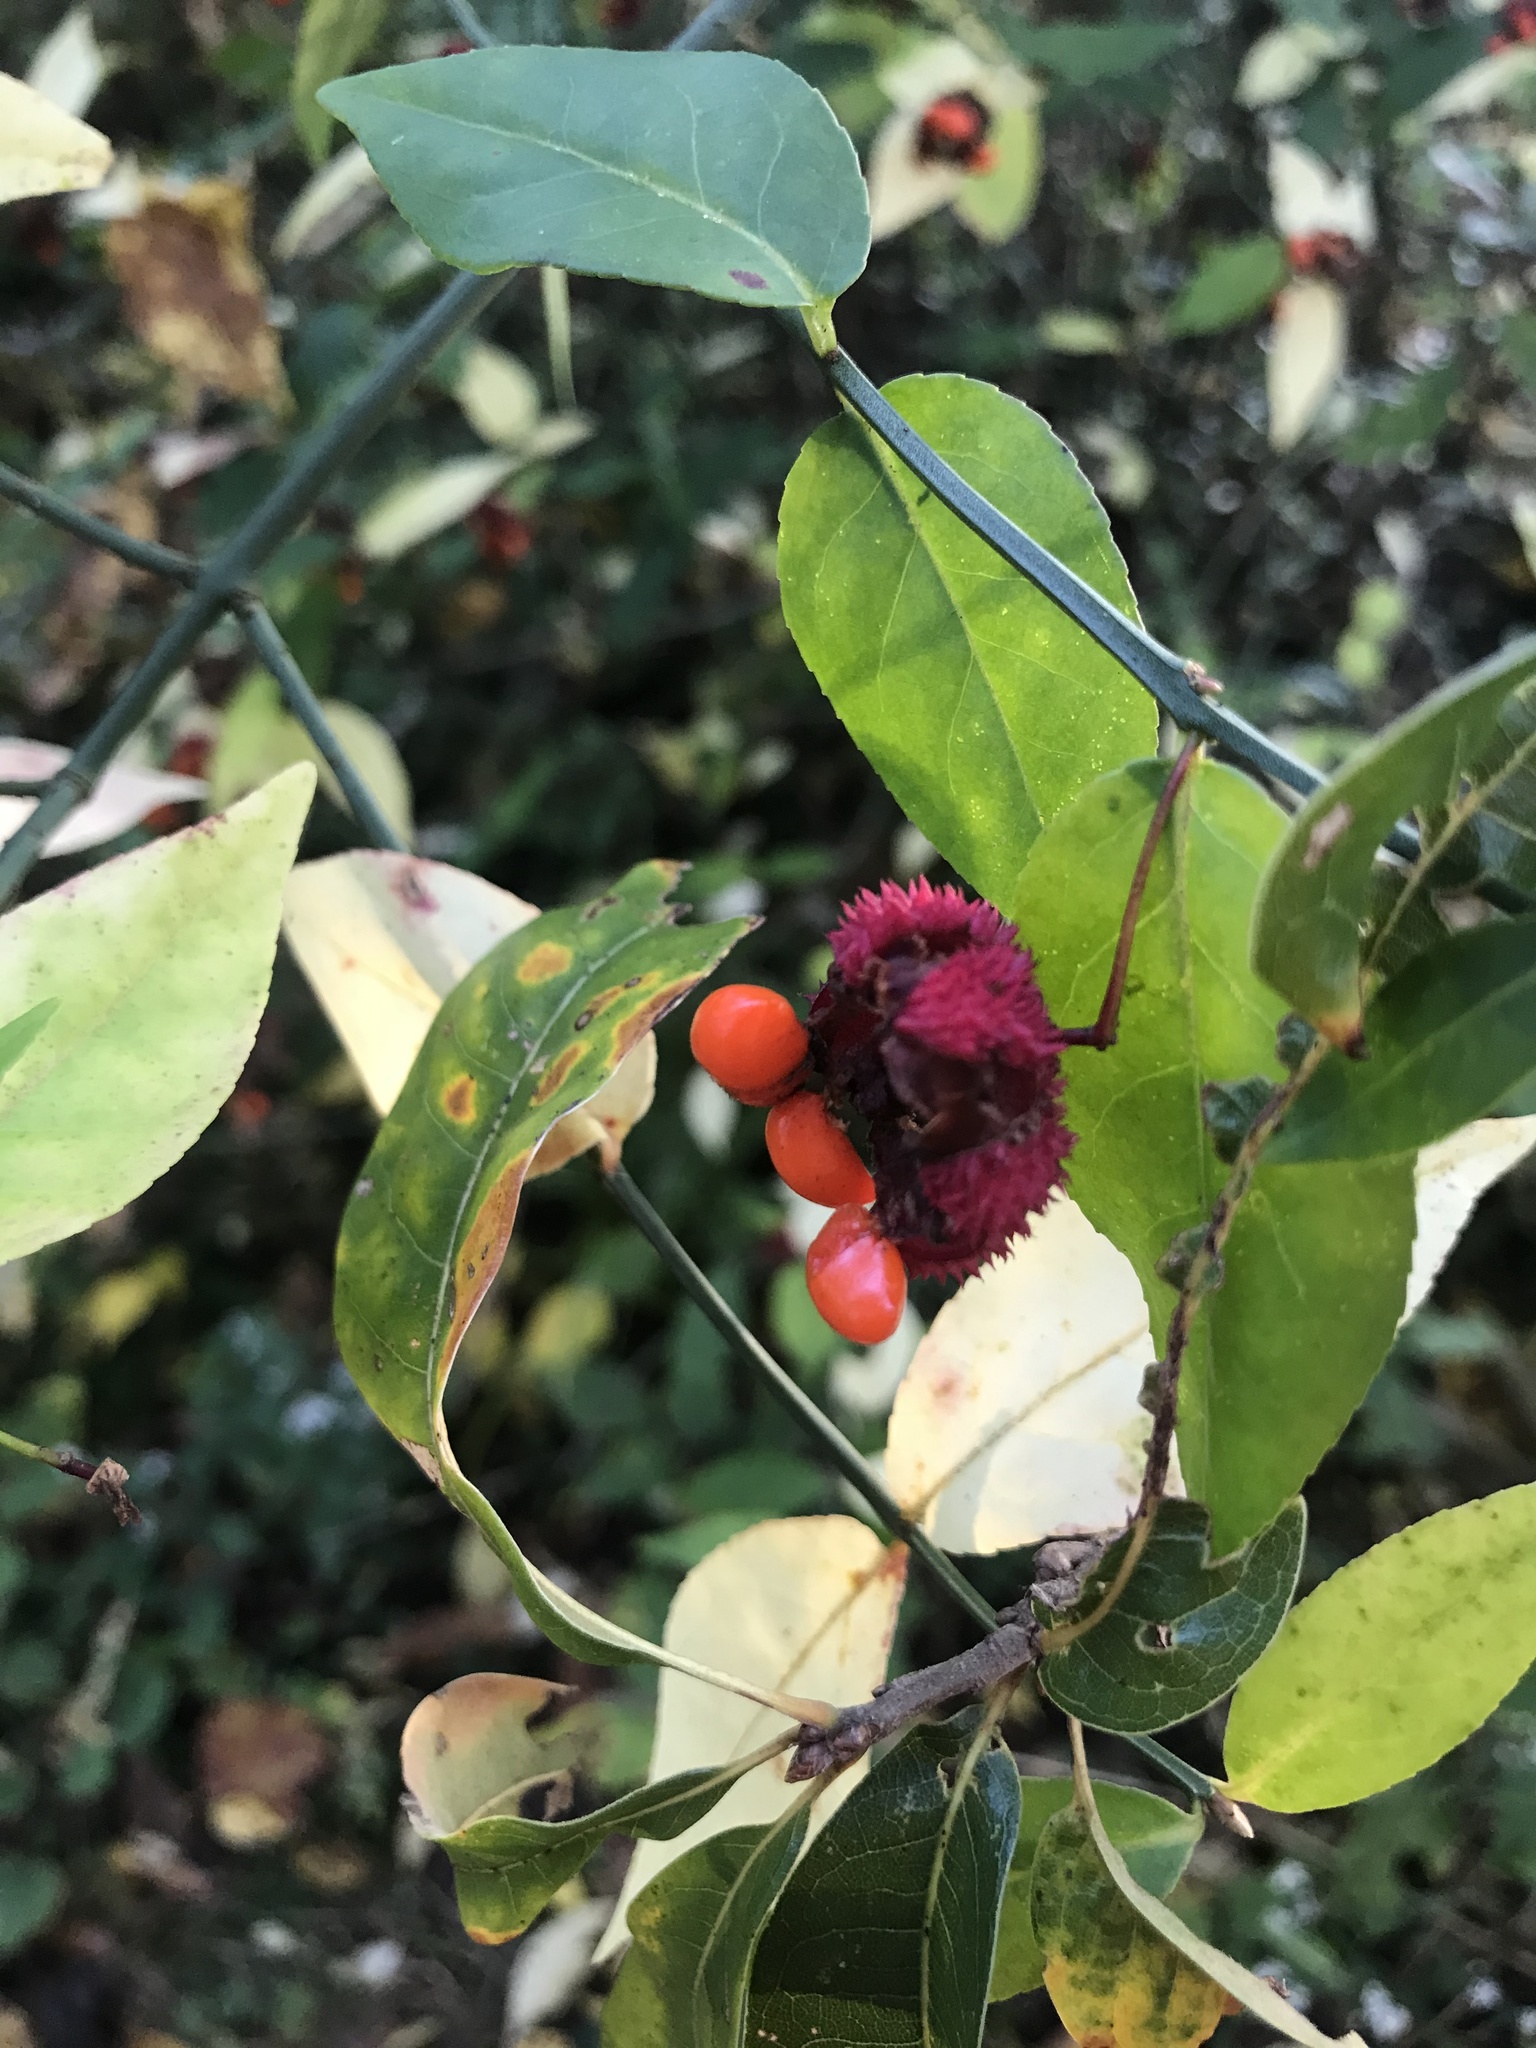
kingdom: Plantae
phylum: Tracheophyta
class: Magnoliopsida
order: Celastrales
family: Celastraceae
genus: Euonymus
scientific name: Euonymus americanus
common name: Bursting-heart
